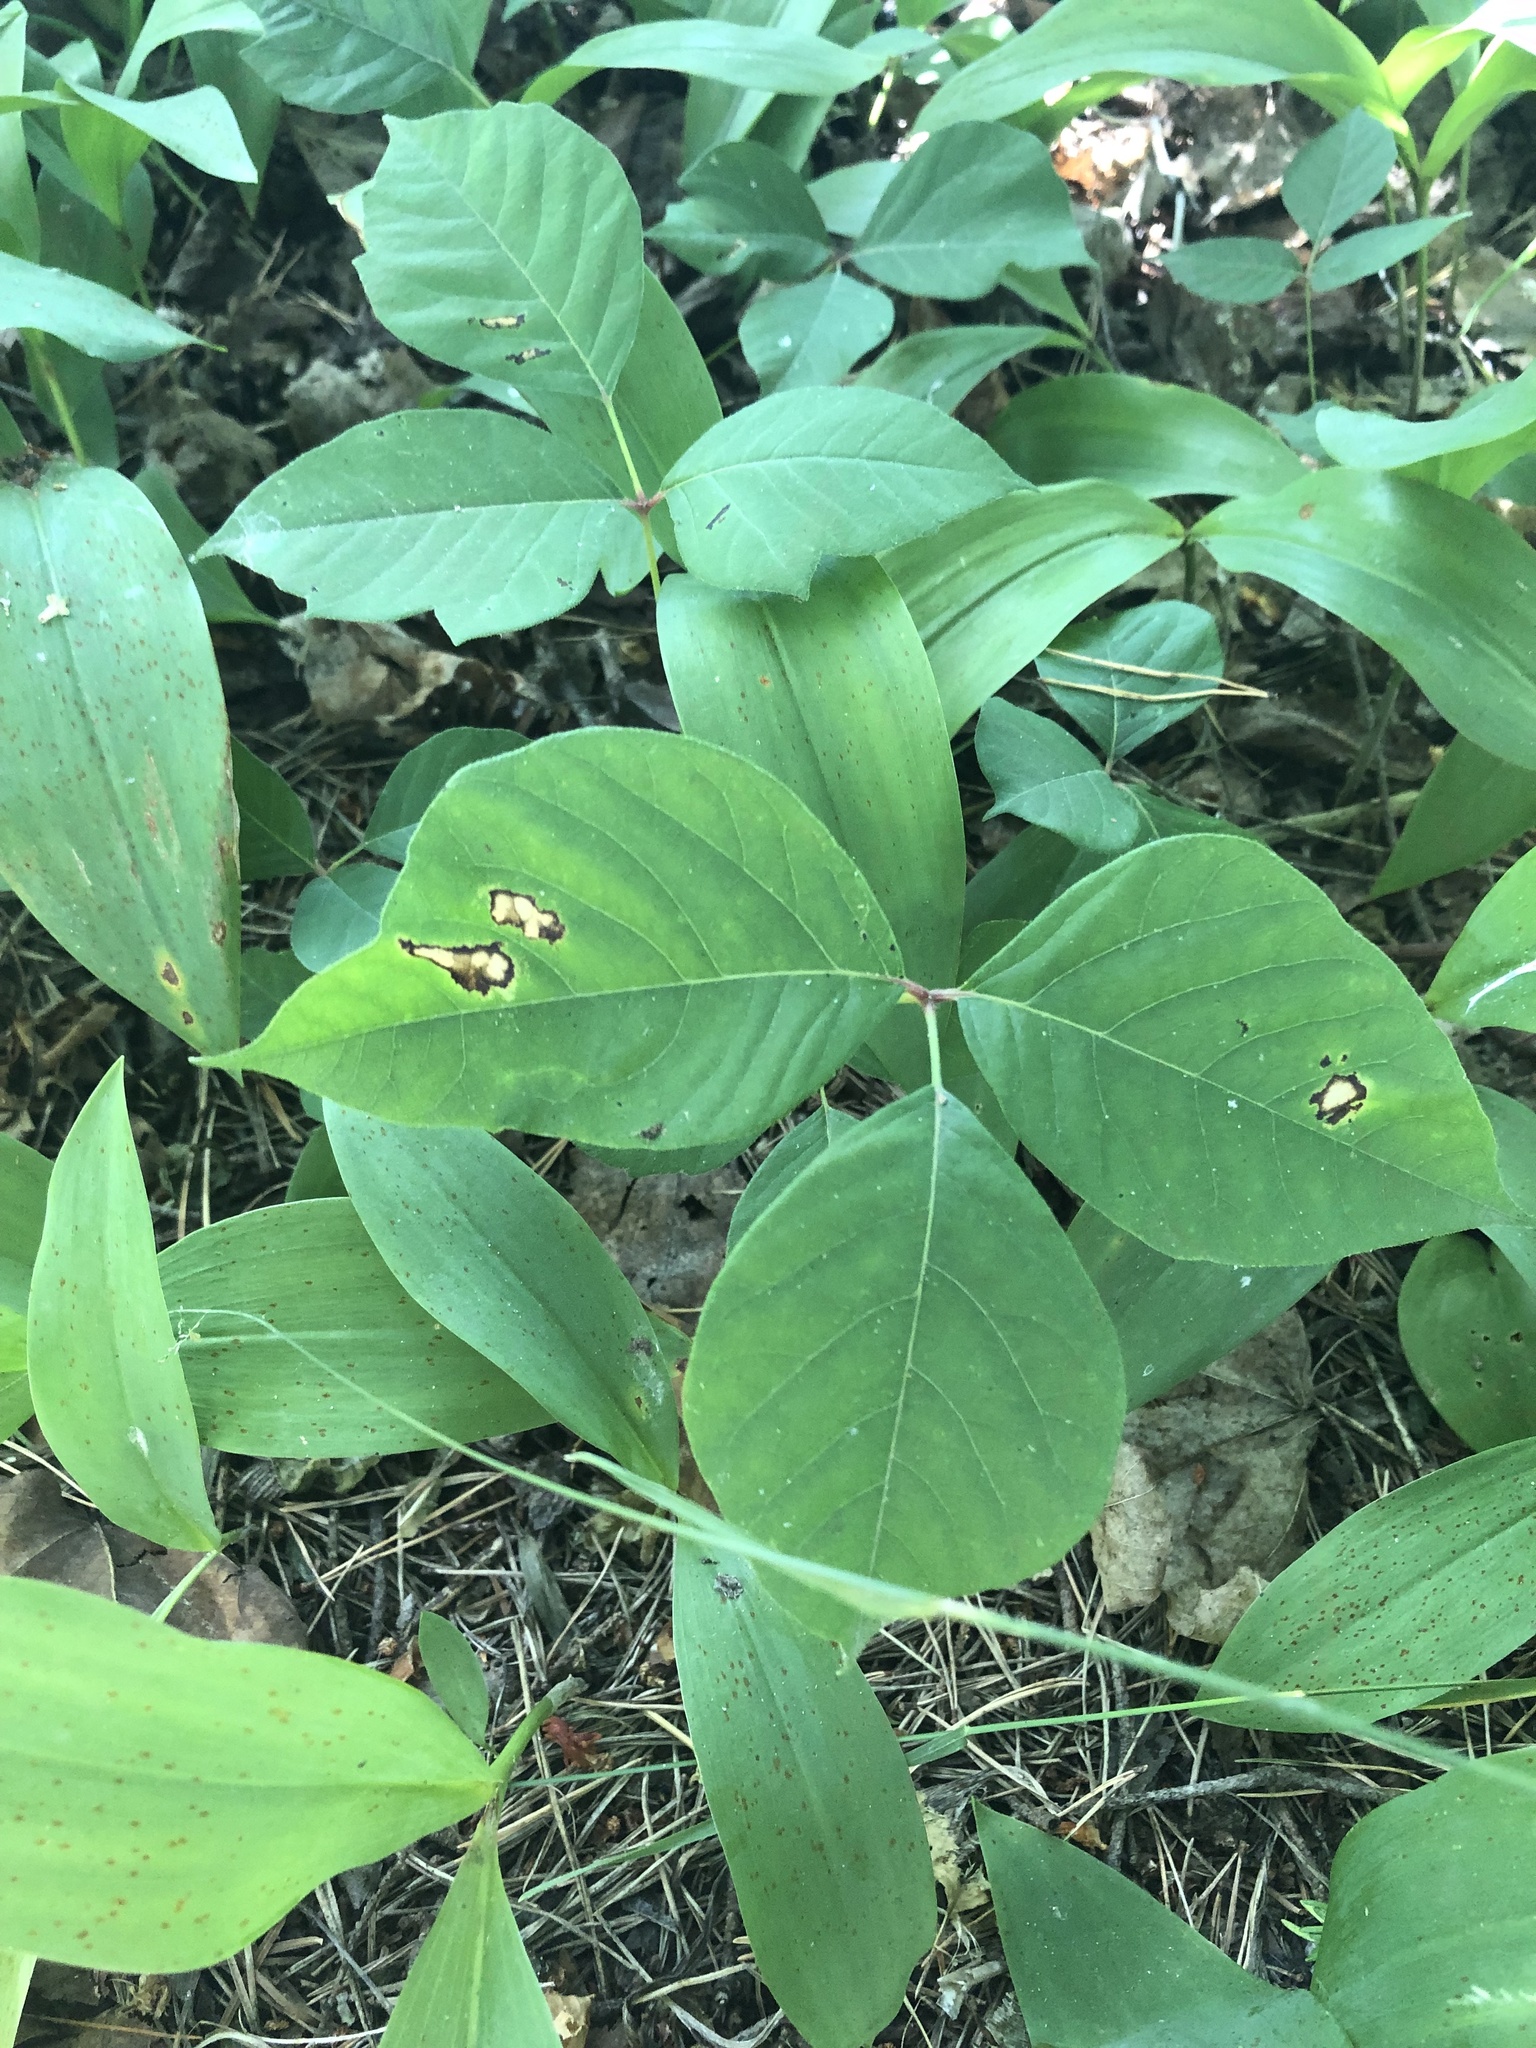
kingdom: Plantae
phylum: Tracheophyta
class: Magnoliopsida
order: Sapindales
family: Anacardiaceae
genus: Toxicodendron
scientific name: Toxicodendron rydbergii
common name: Rydberg's poison-ivy
